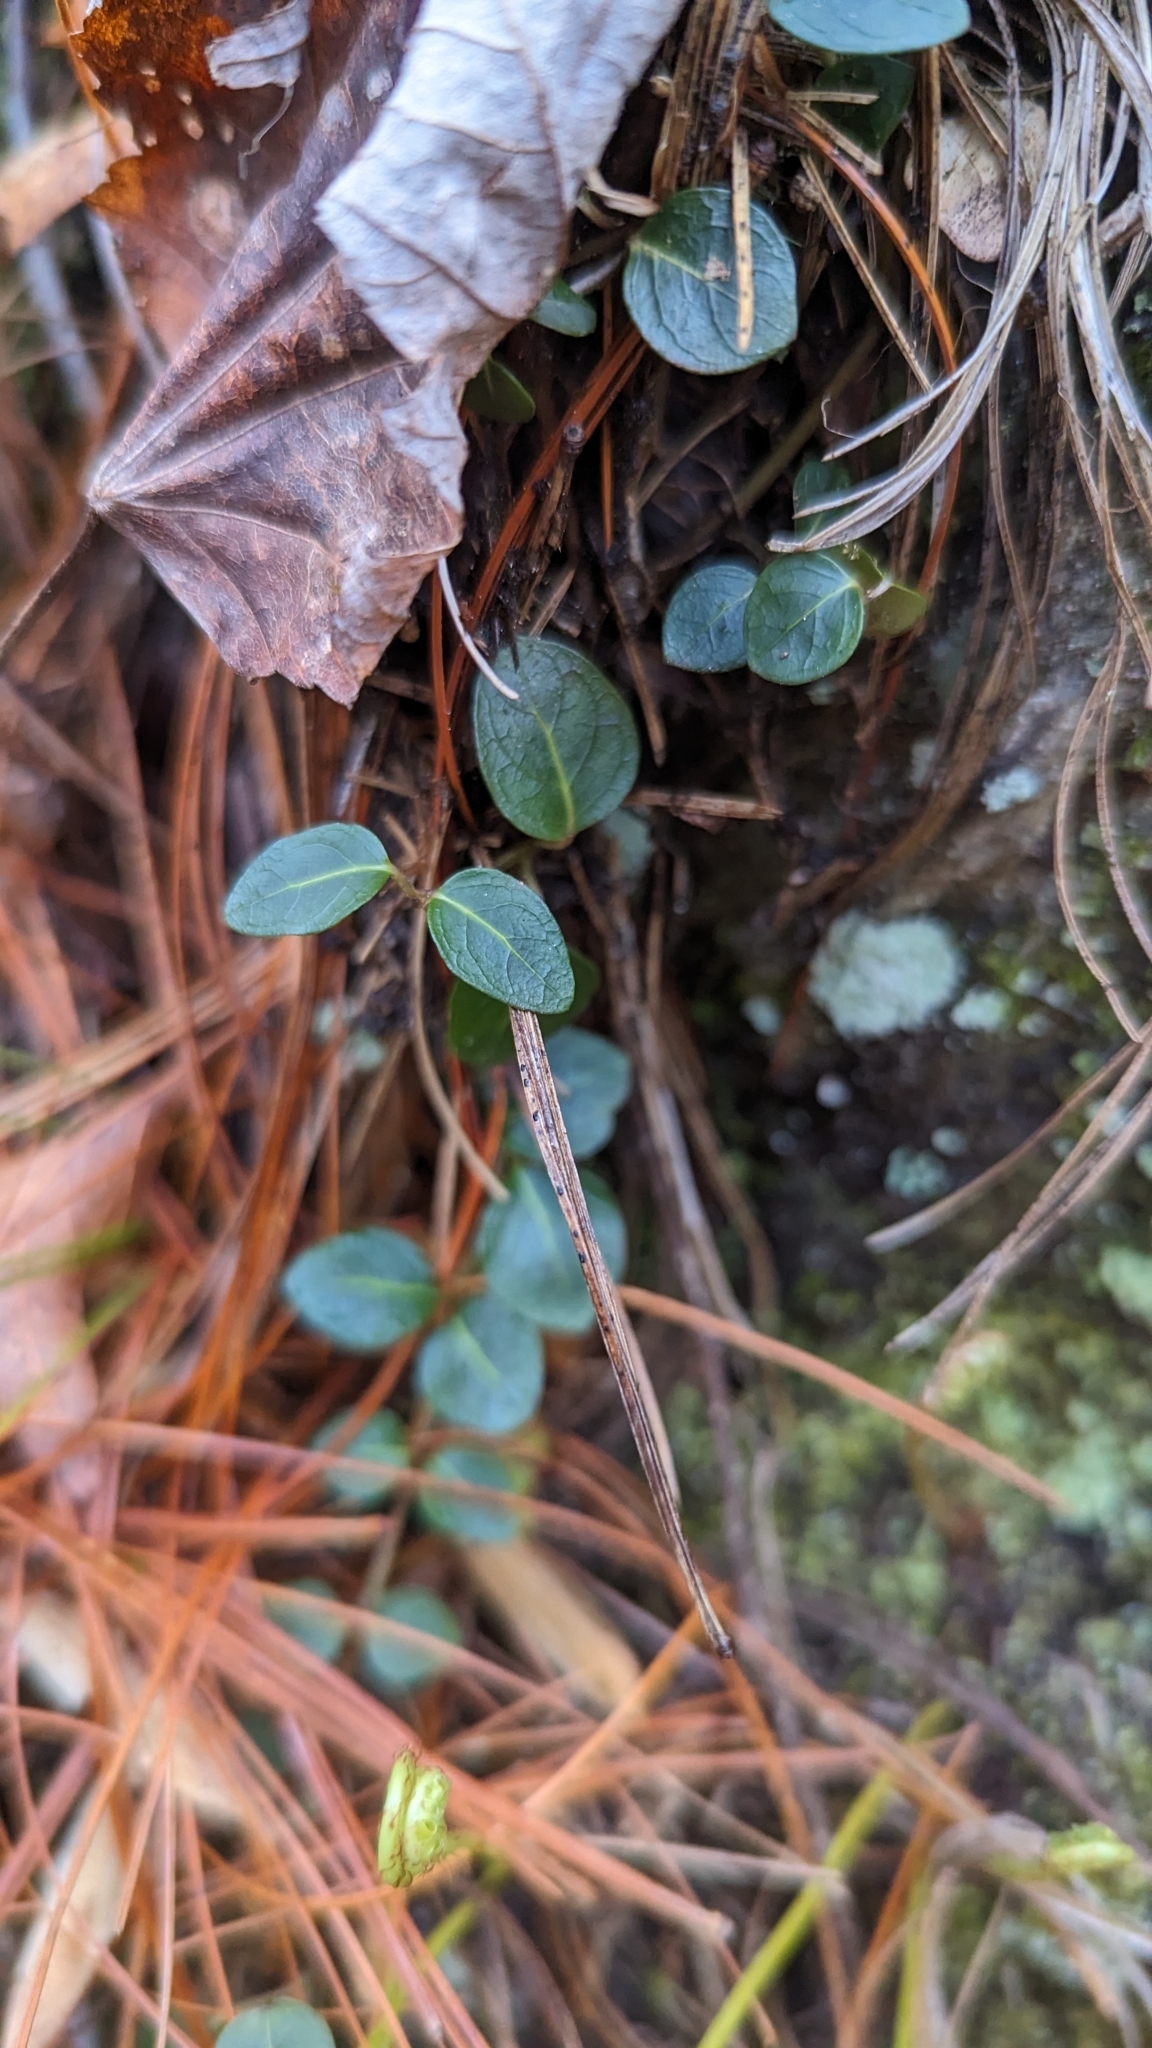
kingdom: Plantae
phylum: Tracheophyta
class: Magnoliopsida
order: Gentianales
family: Rubiaceae
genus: Mitchella
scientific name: Mitchella repens
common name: Partridge-berry
